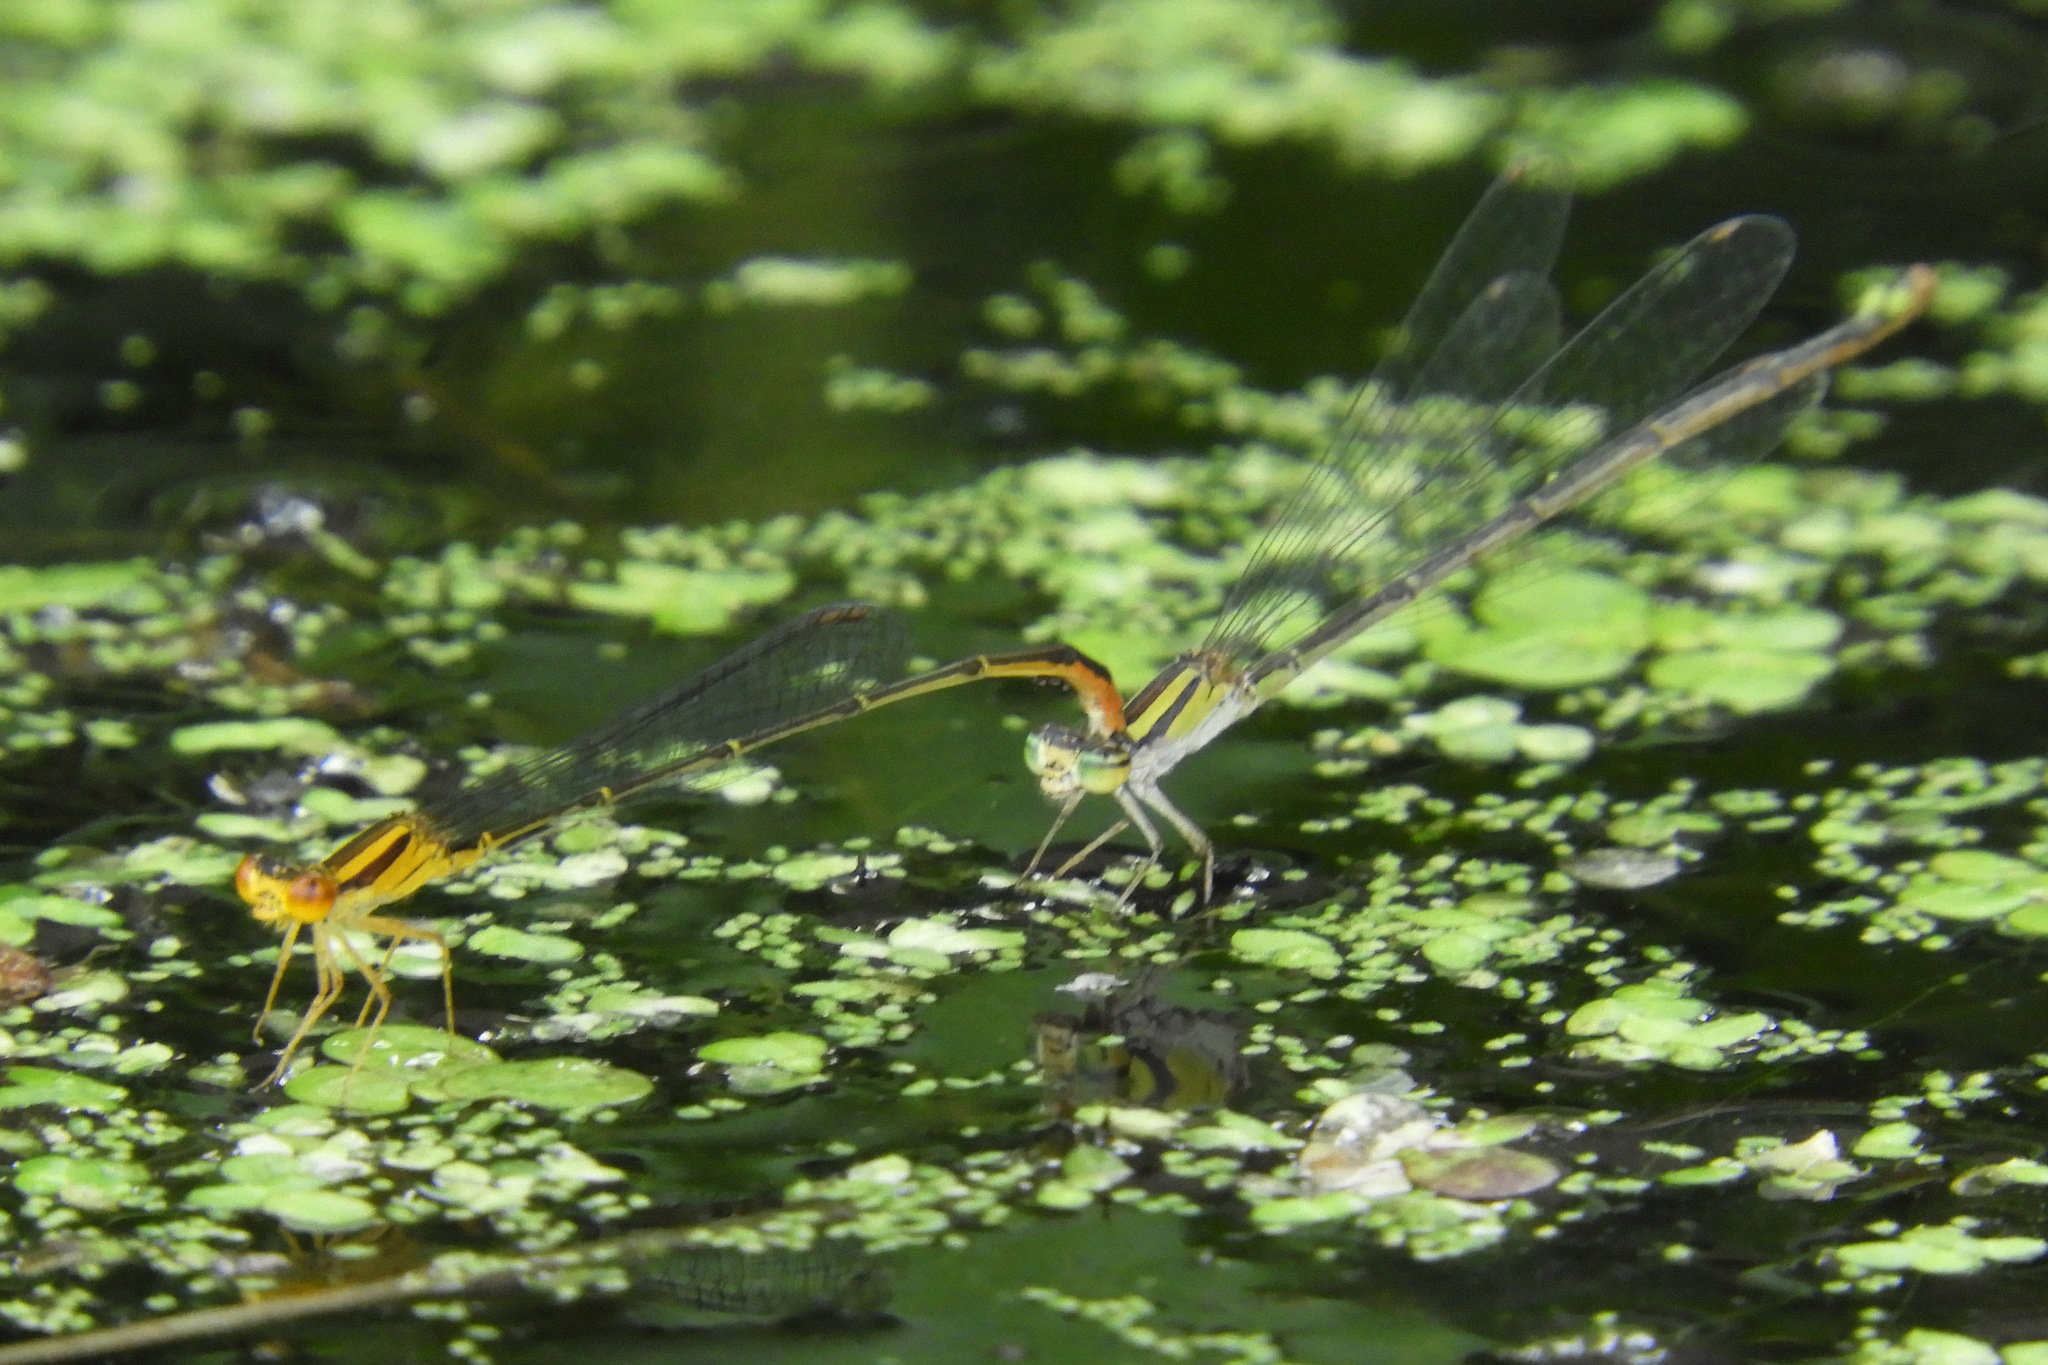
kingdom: Animalia
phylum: Arthropoda
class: Insecta
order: Odonata
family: Coenagrionidae
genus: Enallagma
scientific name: Enallagma signatum
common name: Orange bluet
